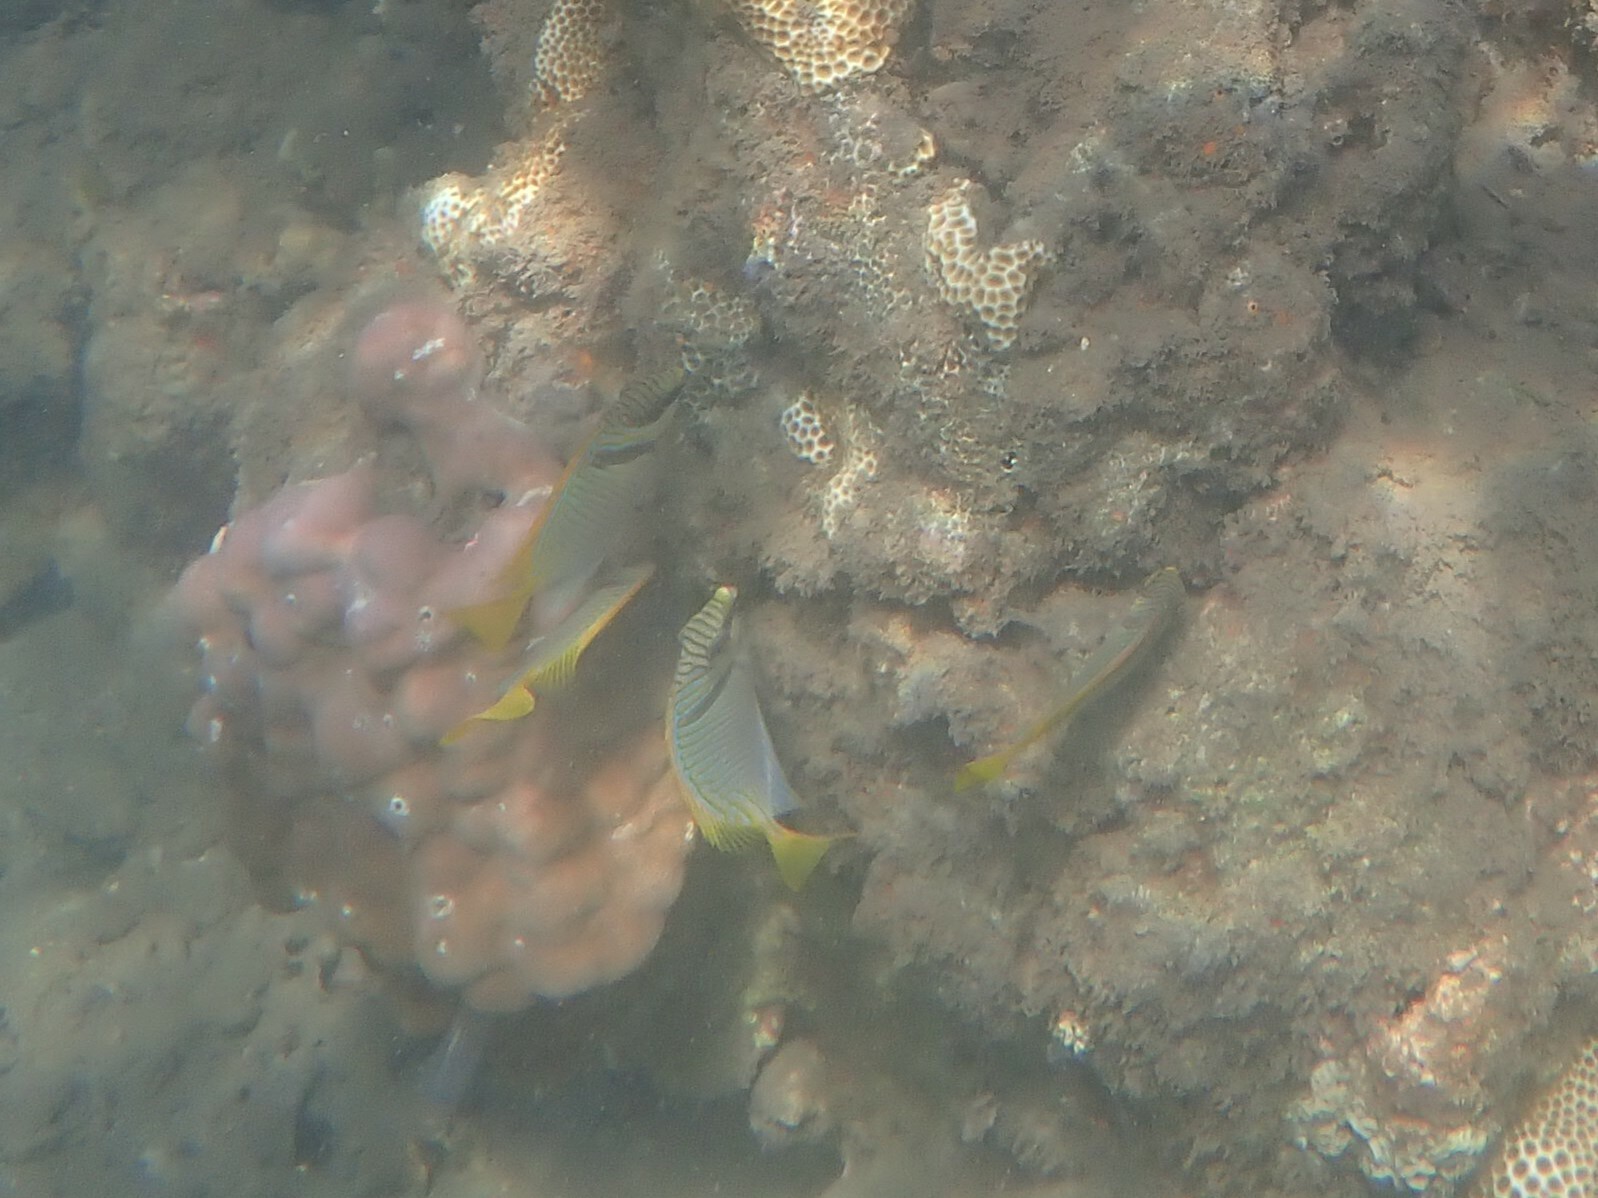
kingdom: Animalia
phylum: Chordata
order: Perciformes
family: Siganidae
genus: Siganus
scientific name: Siganus doliatus
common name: Barred spinefoot
